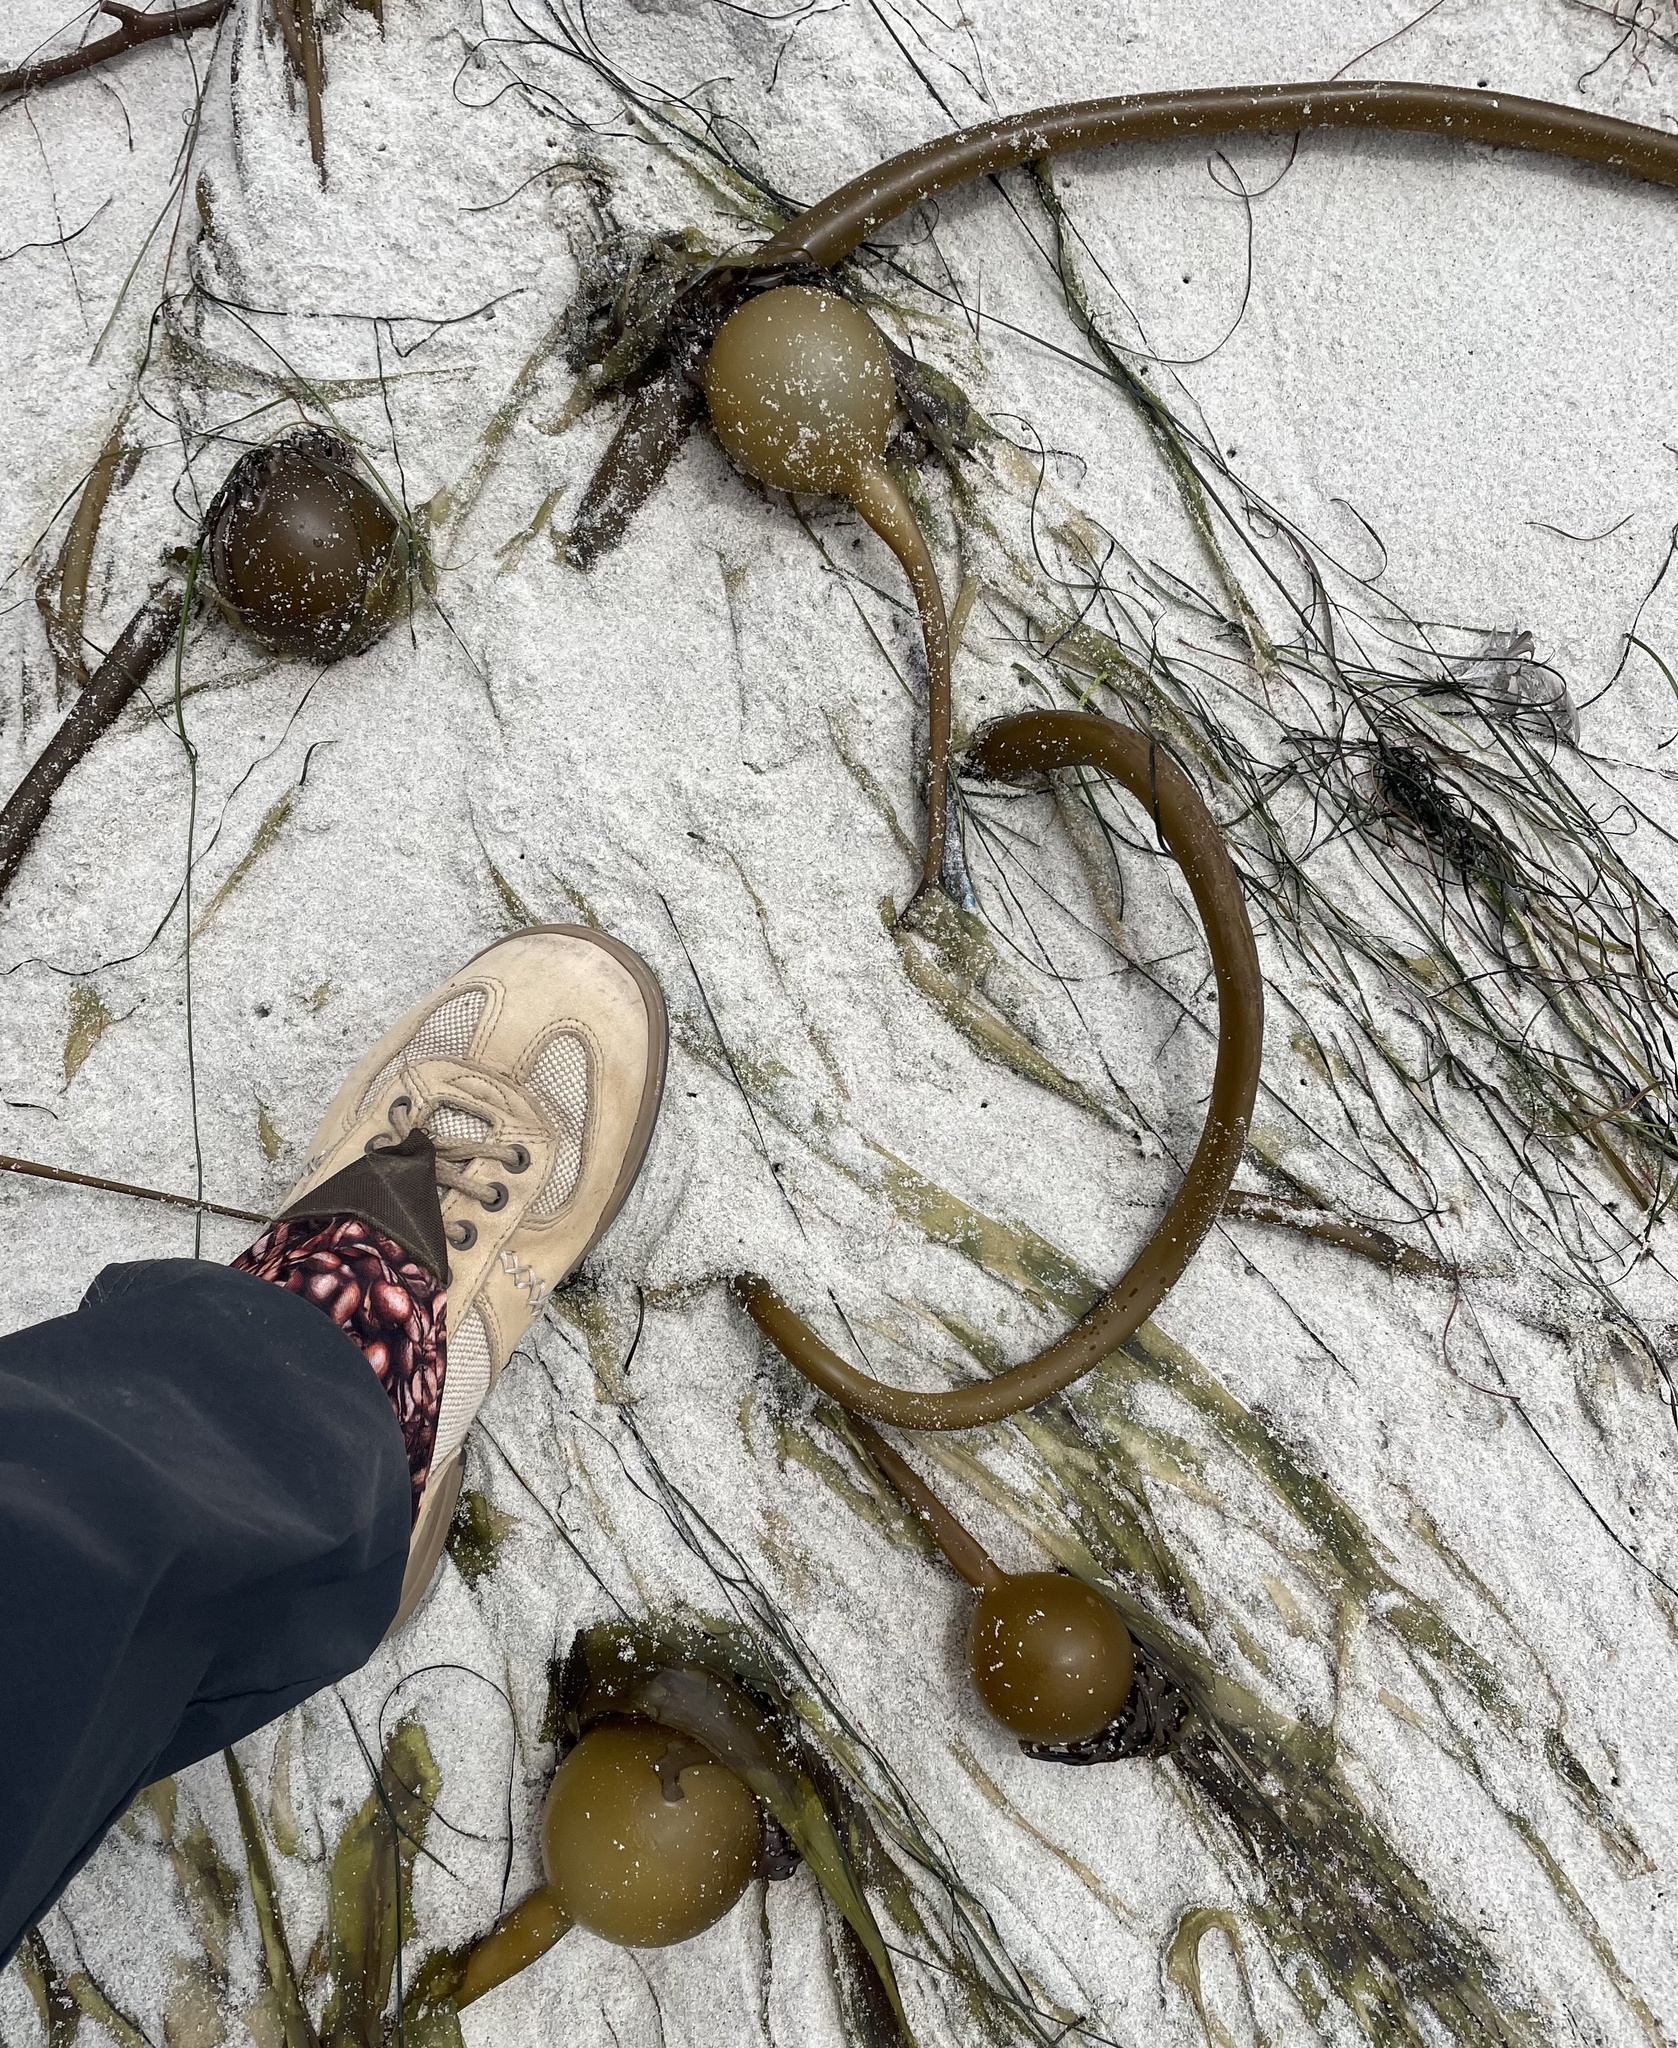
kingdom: Chromista
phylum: Ochrophyta
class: Phaeophyceae
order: Laminariales
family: Laminariaceae
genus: Nereocystis
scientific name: Nereocystis luetkeana
